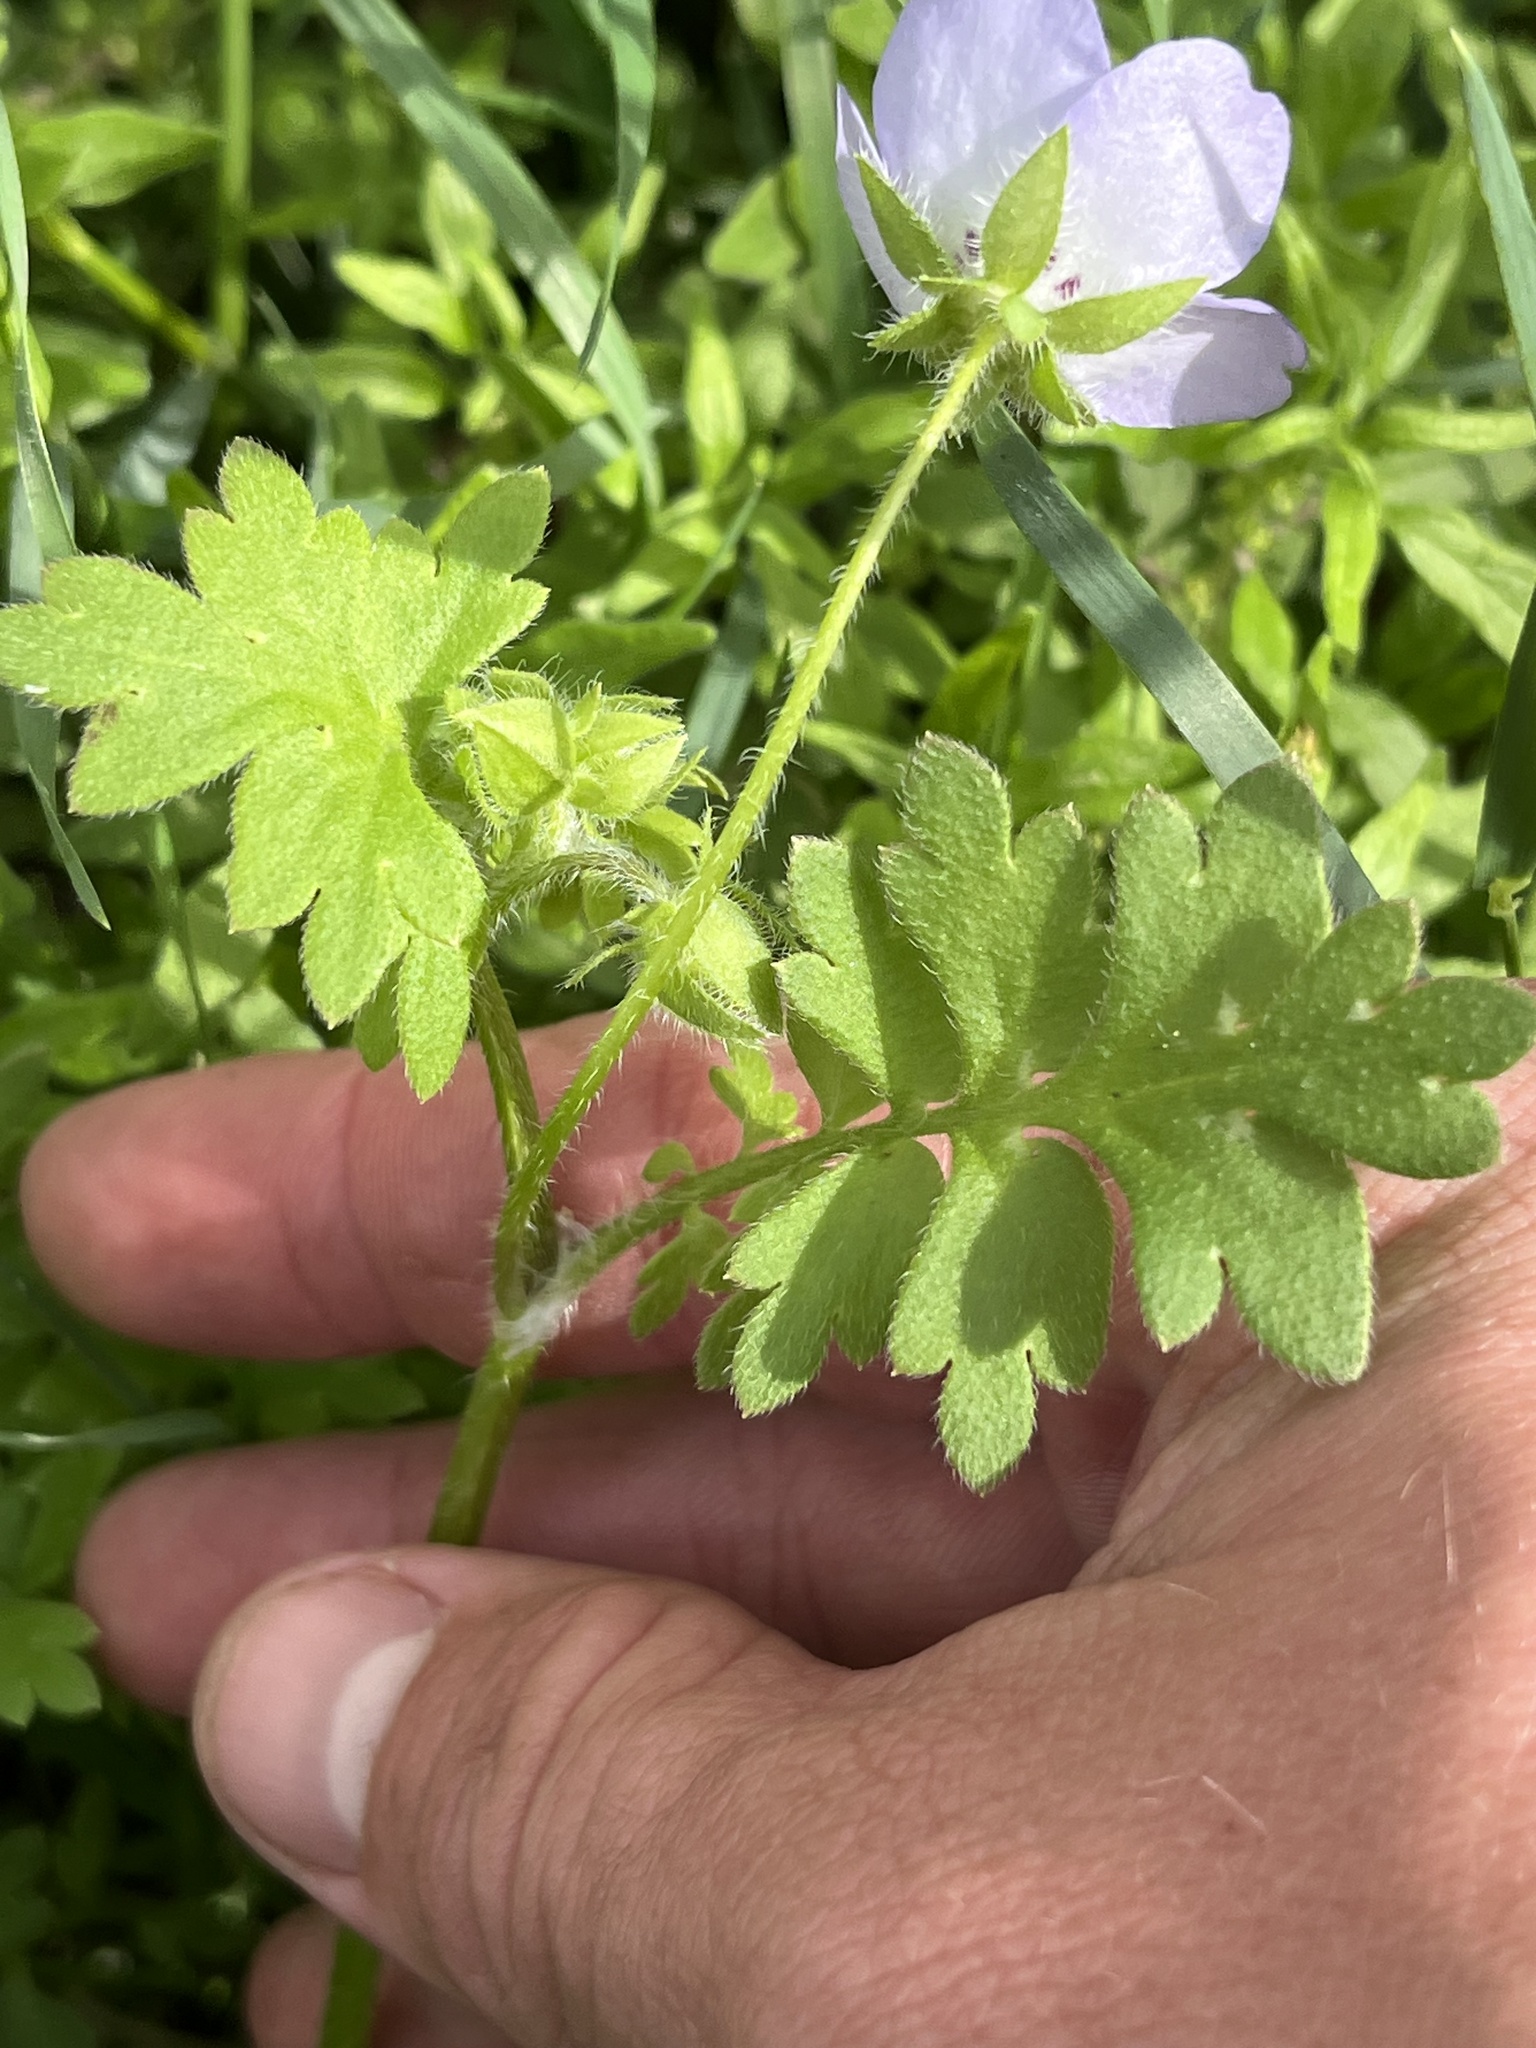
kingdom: Plantae
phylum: Tracheophyta
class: Magnoliopsida
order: Boraginales
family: Hydrophyllaceae
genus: Nemophila
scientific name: Nemophila phacelioides
